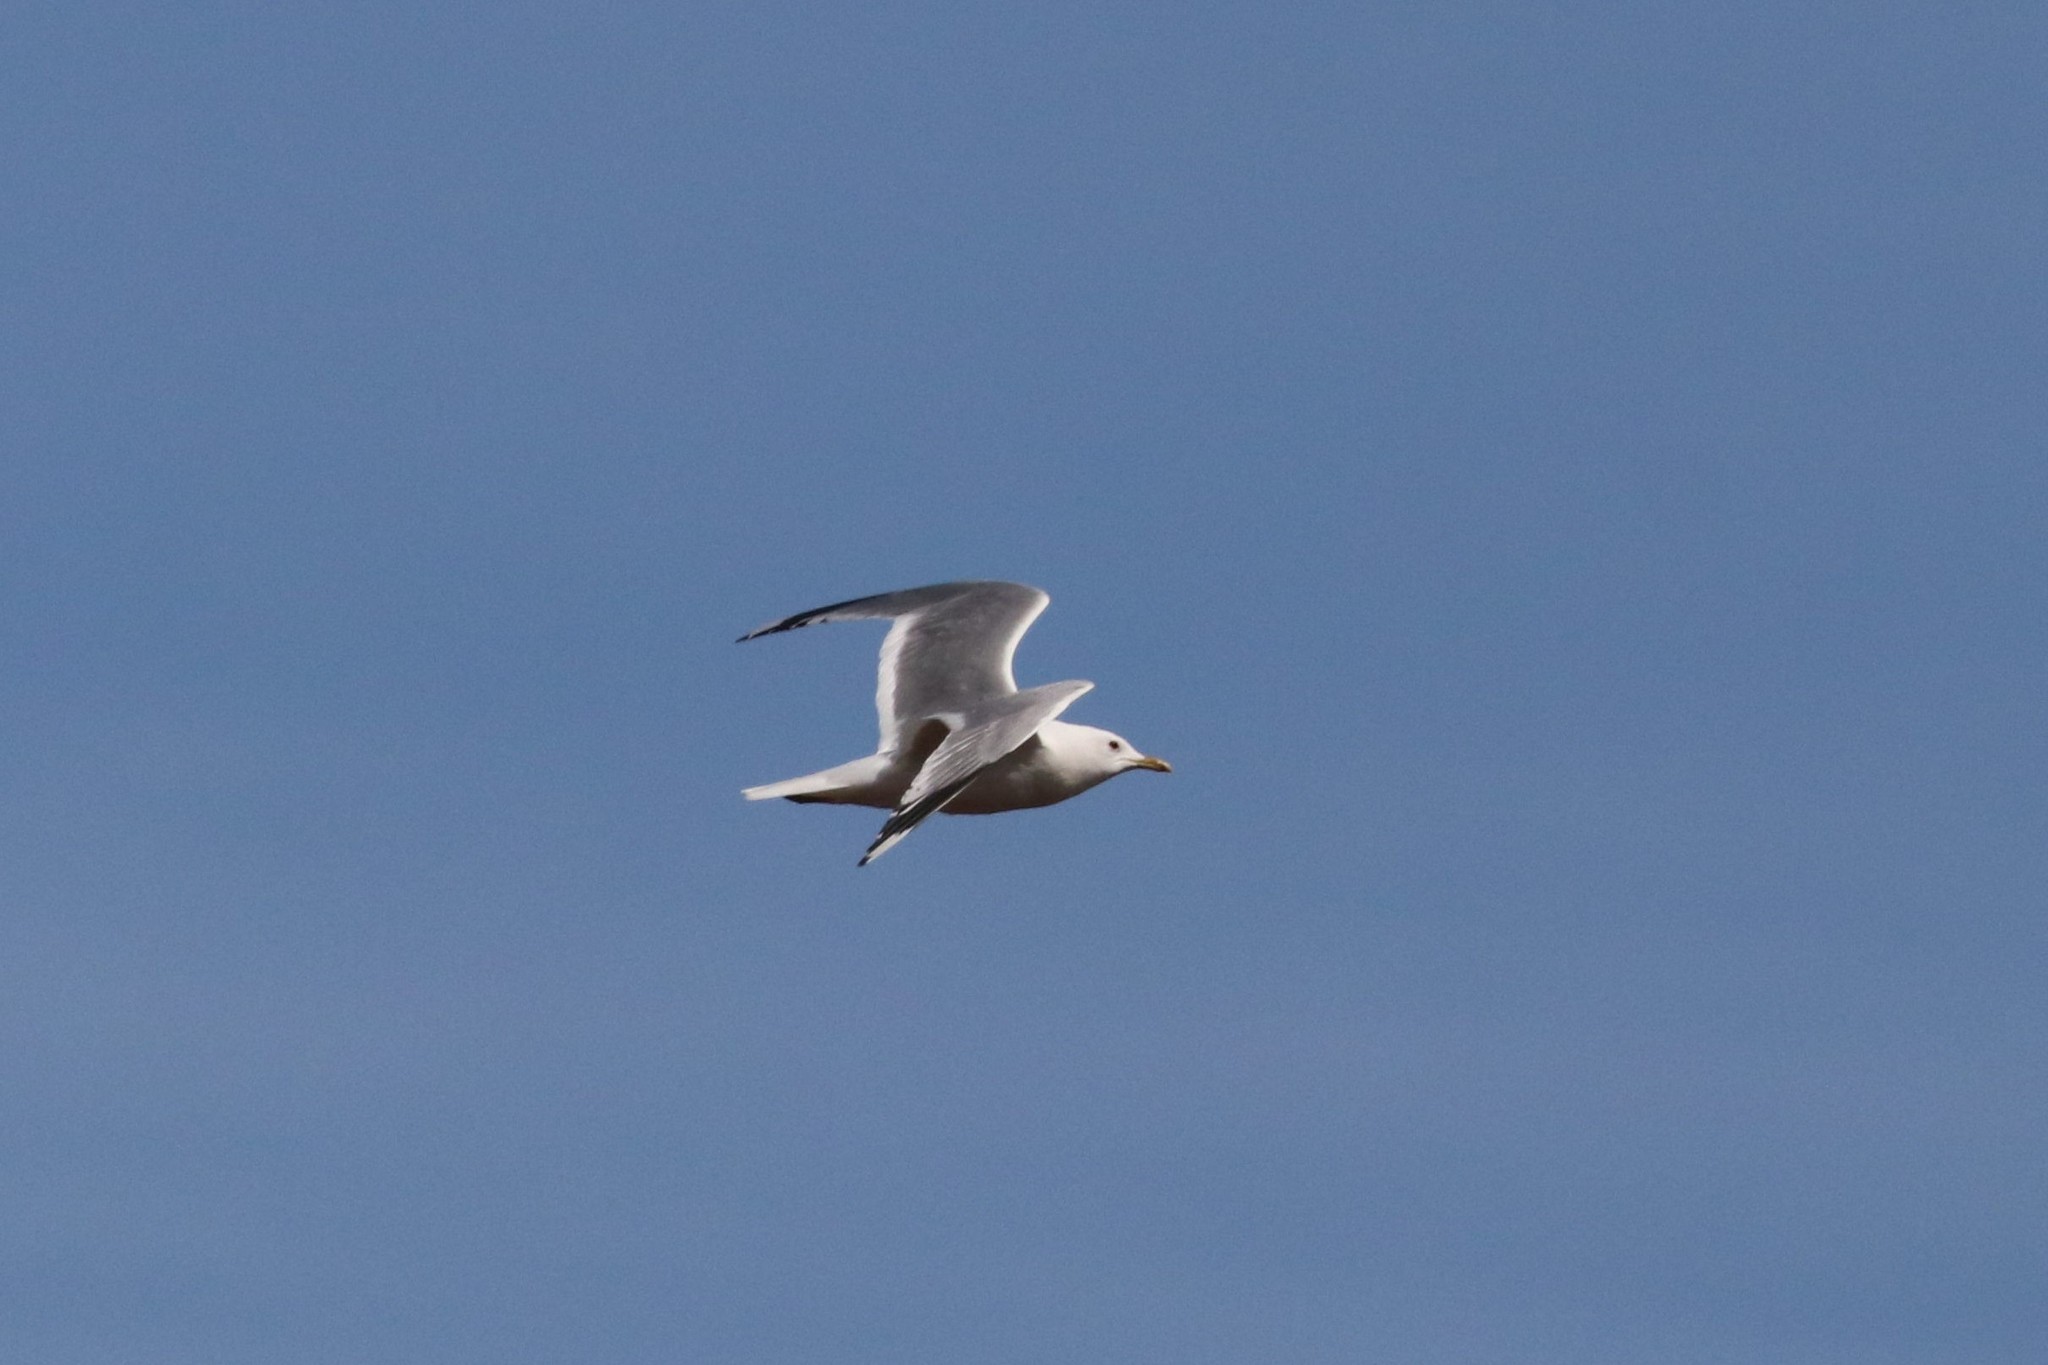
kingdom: Animalia
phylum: Chordata
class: Aves
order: Charadriiformes
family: Laridae
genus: Larus
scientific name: Larus canus
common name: Mew gull
